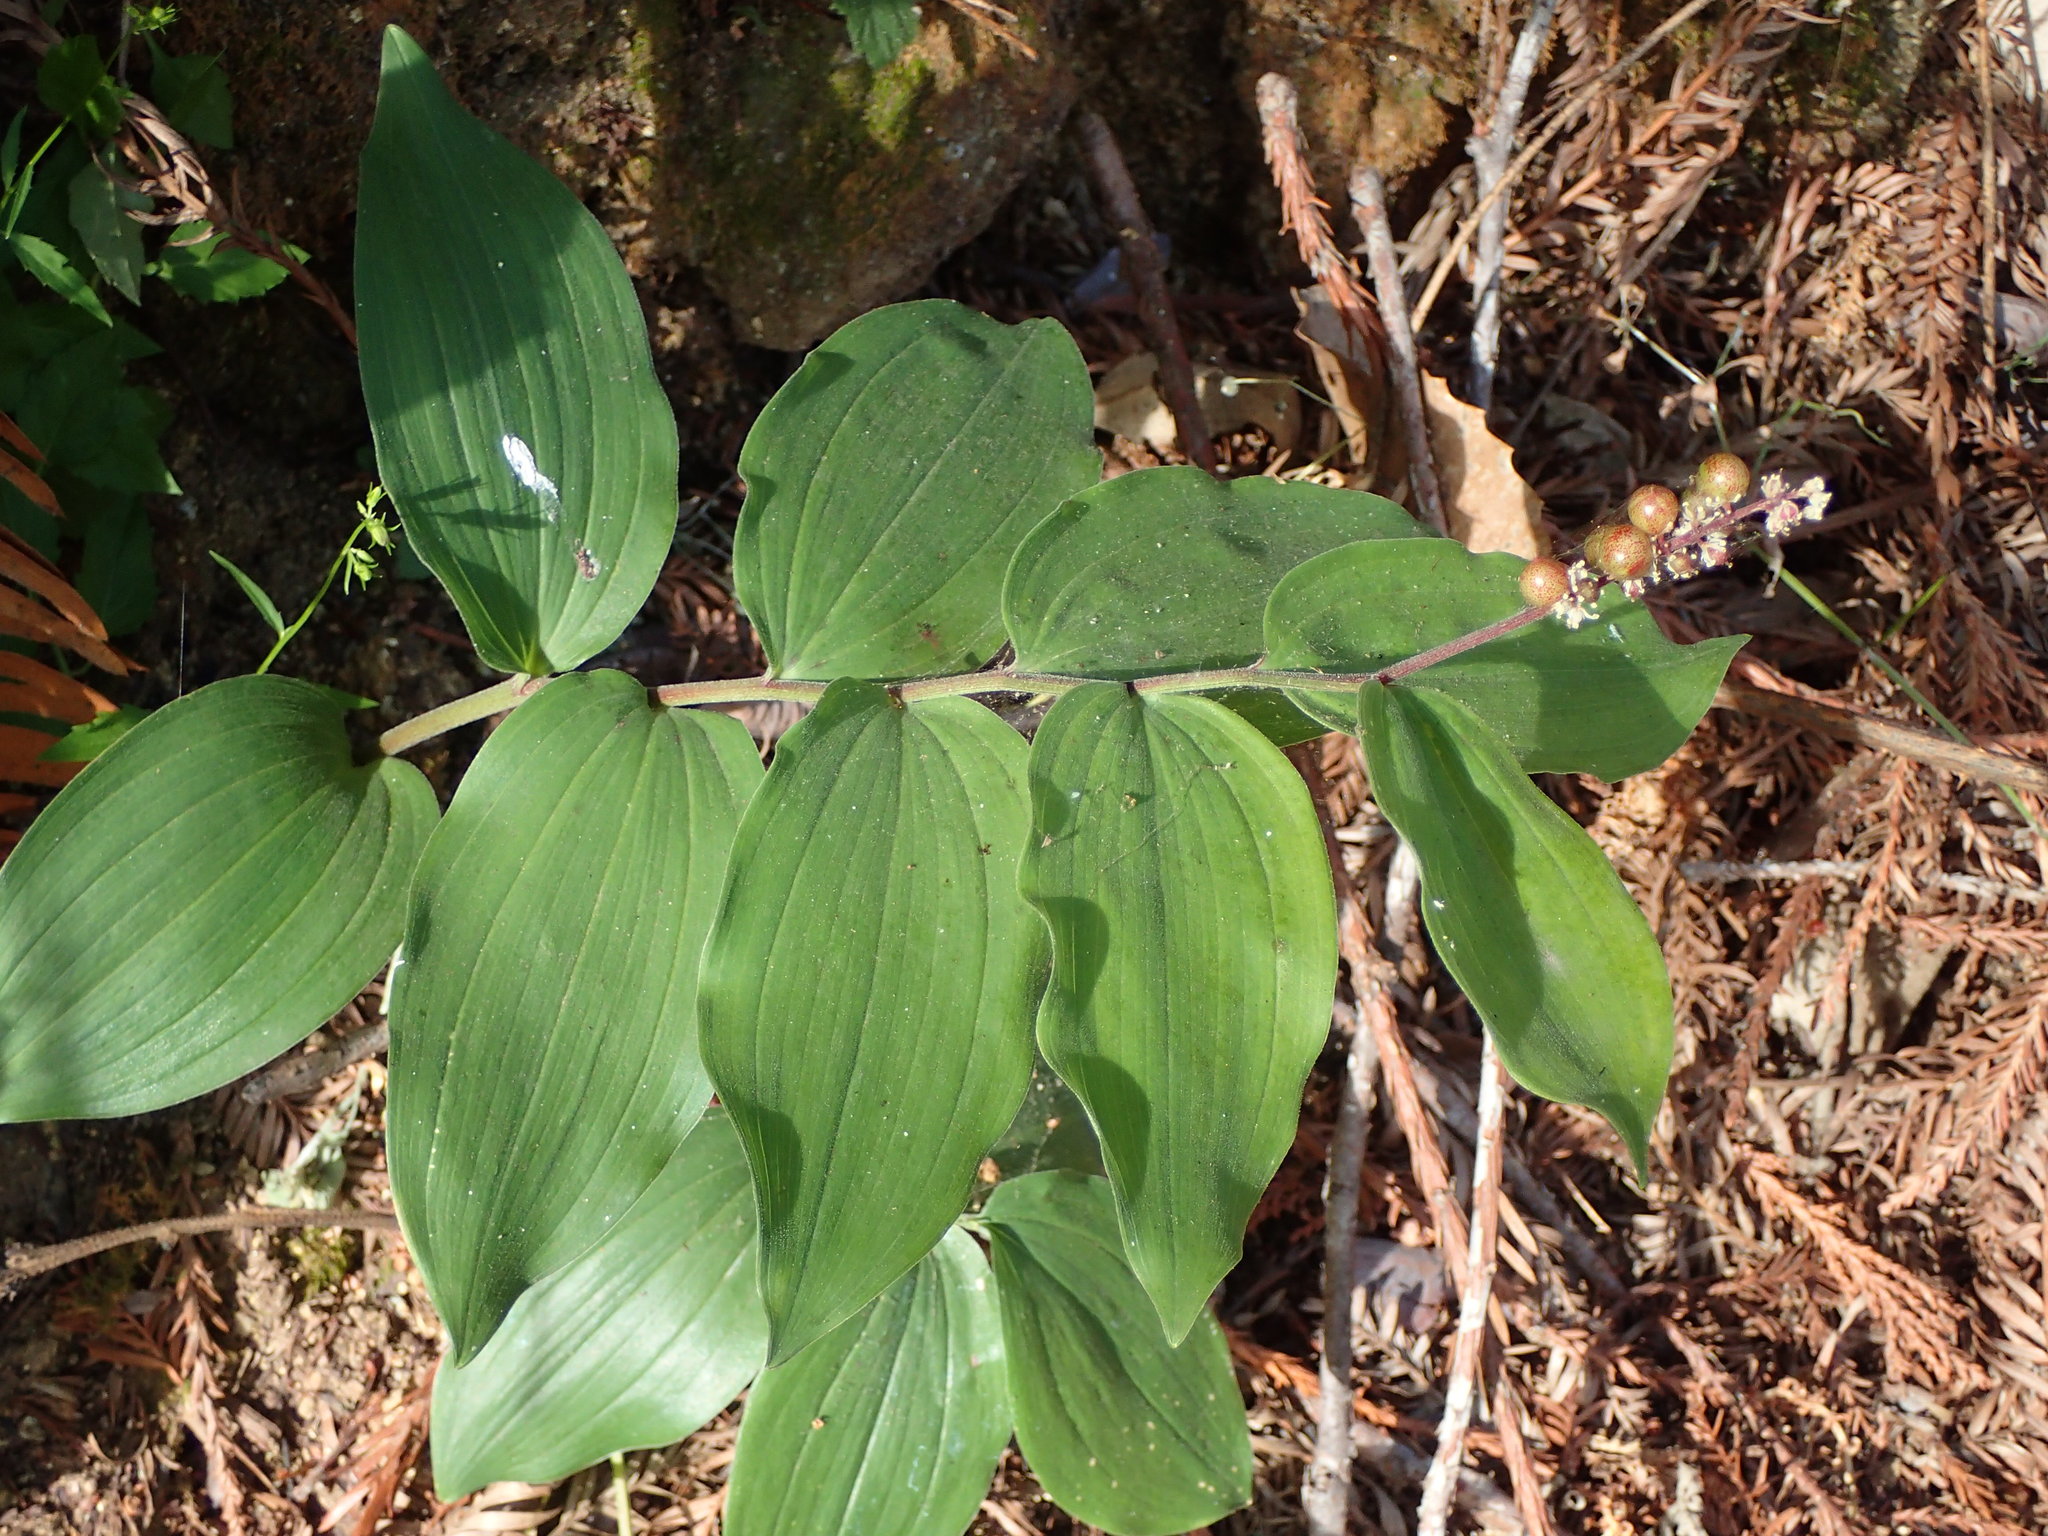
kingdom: Plantae
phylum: Tracheophyta
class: Liliopsida
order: Asparagales
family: Asparagaceae
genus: Maianthemum
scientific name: Maianthemum racemosum
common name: False spikenard
